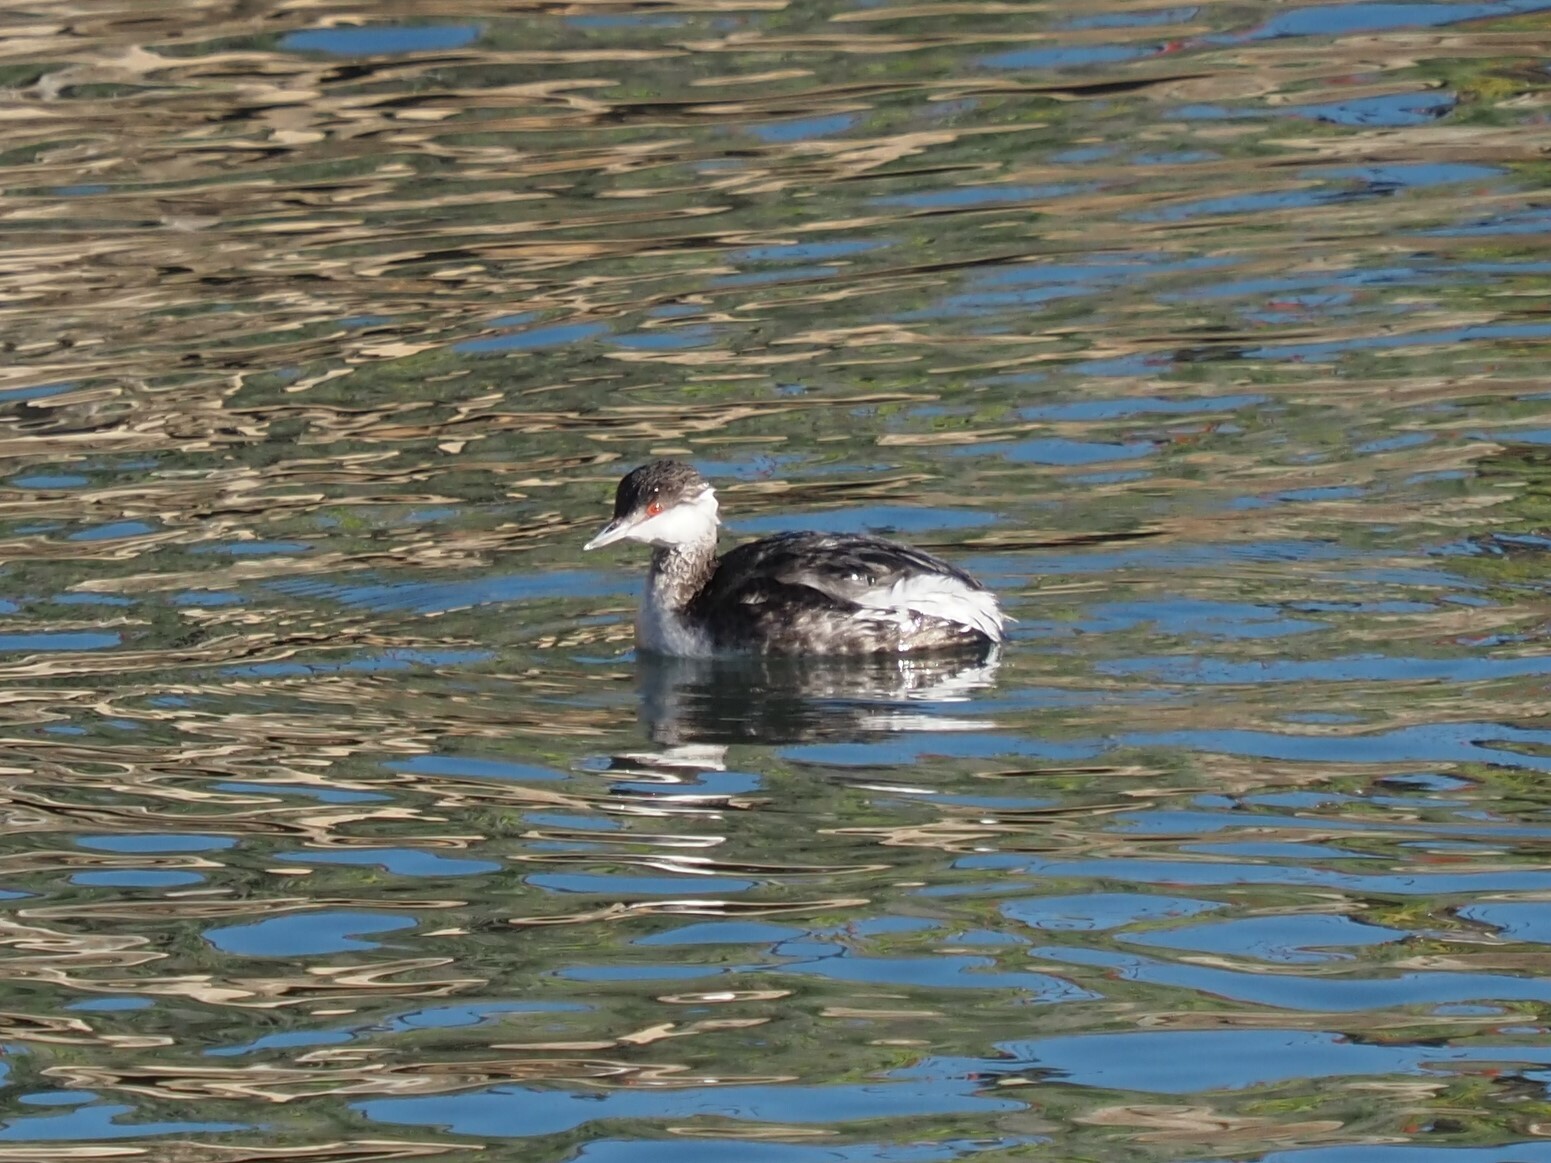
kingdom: Animalia
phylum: Chordata
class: Aves
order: Podicipediformes
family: Podicipedidae
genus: Podiceps
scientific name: Podiceps nigricollis
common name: Black-necked grebe
